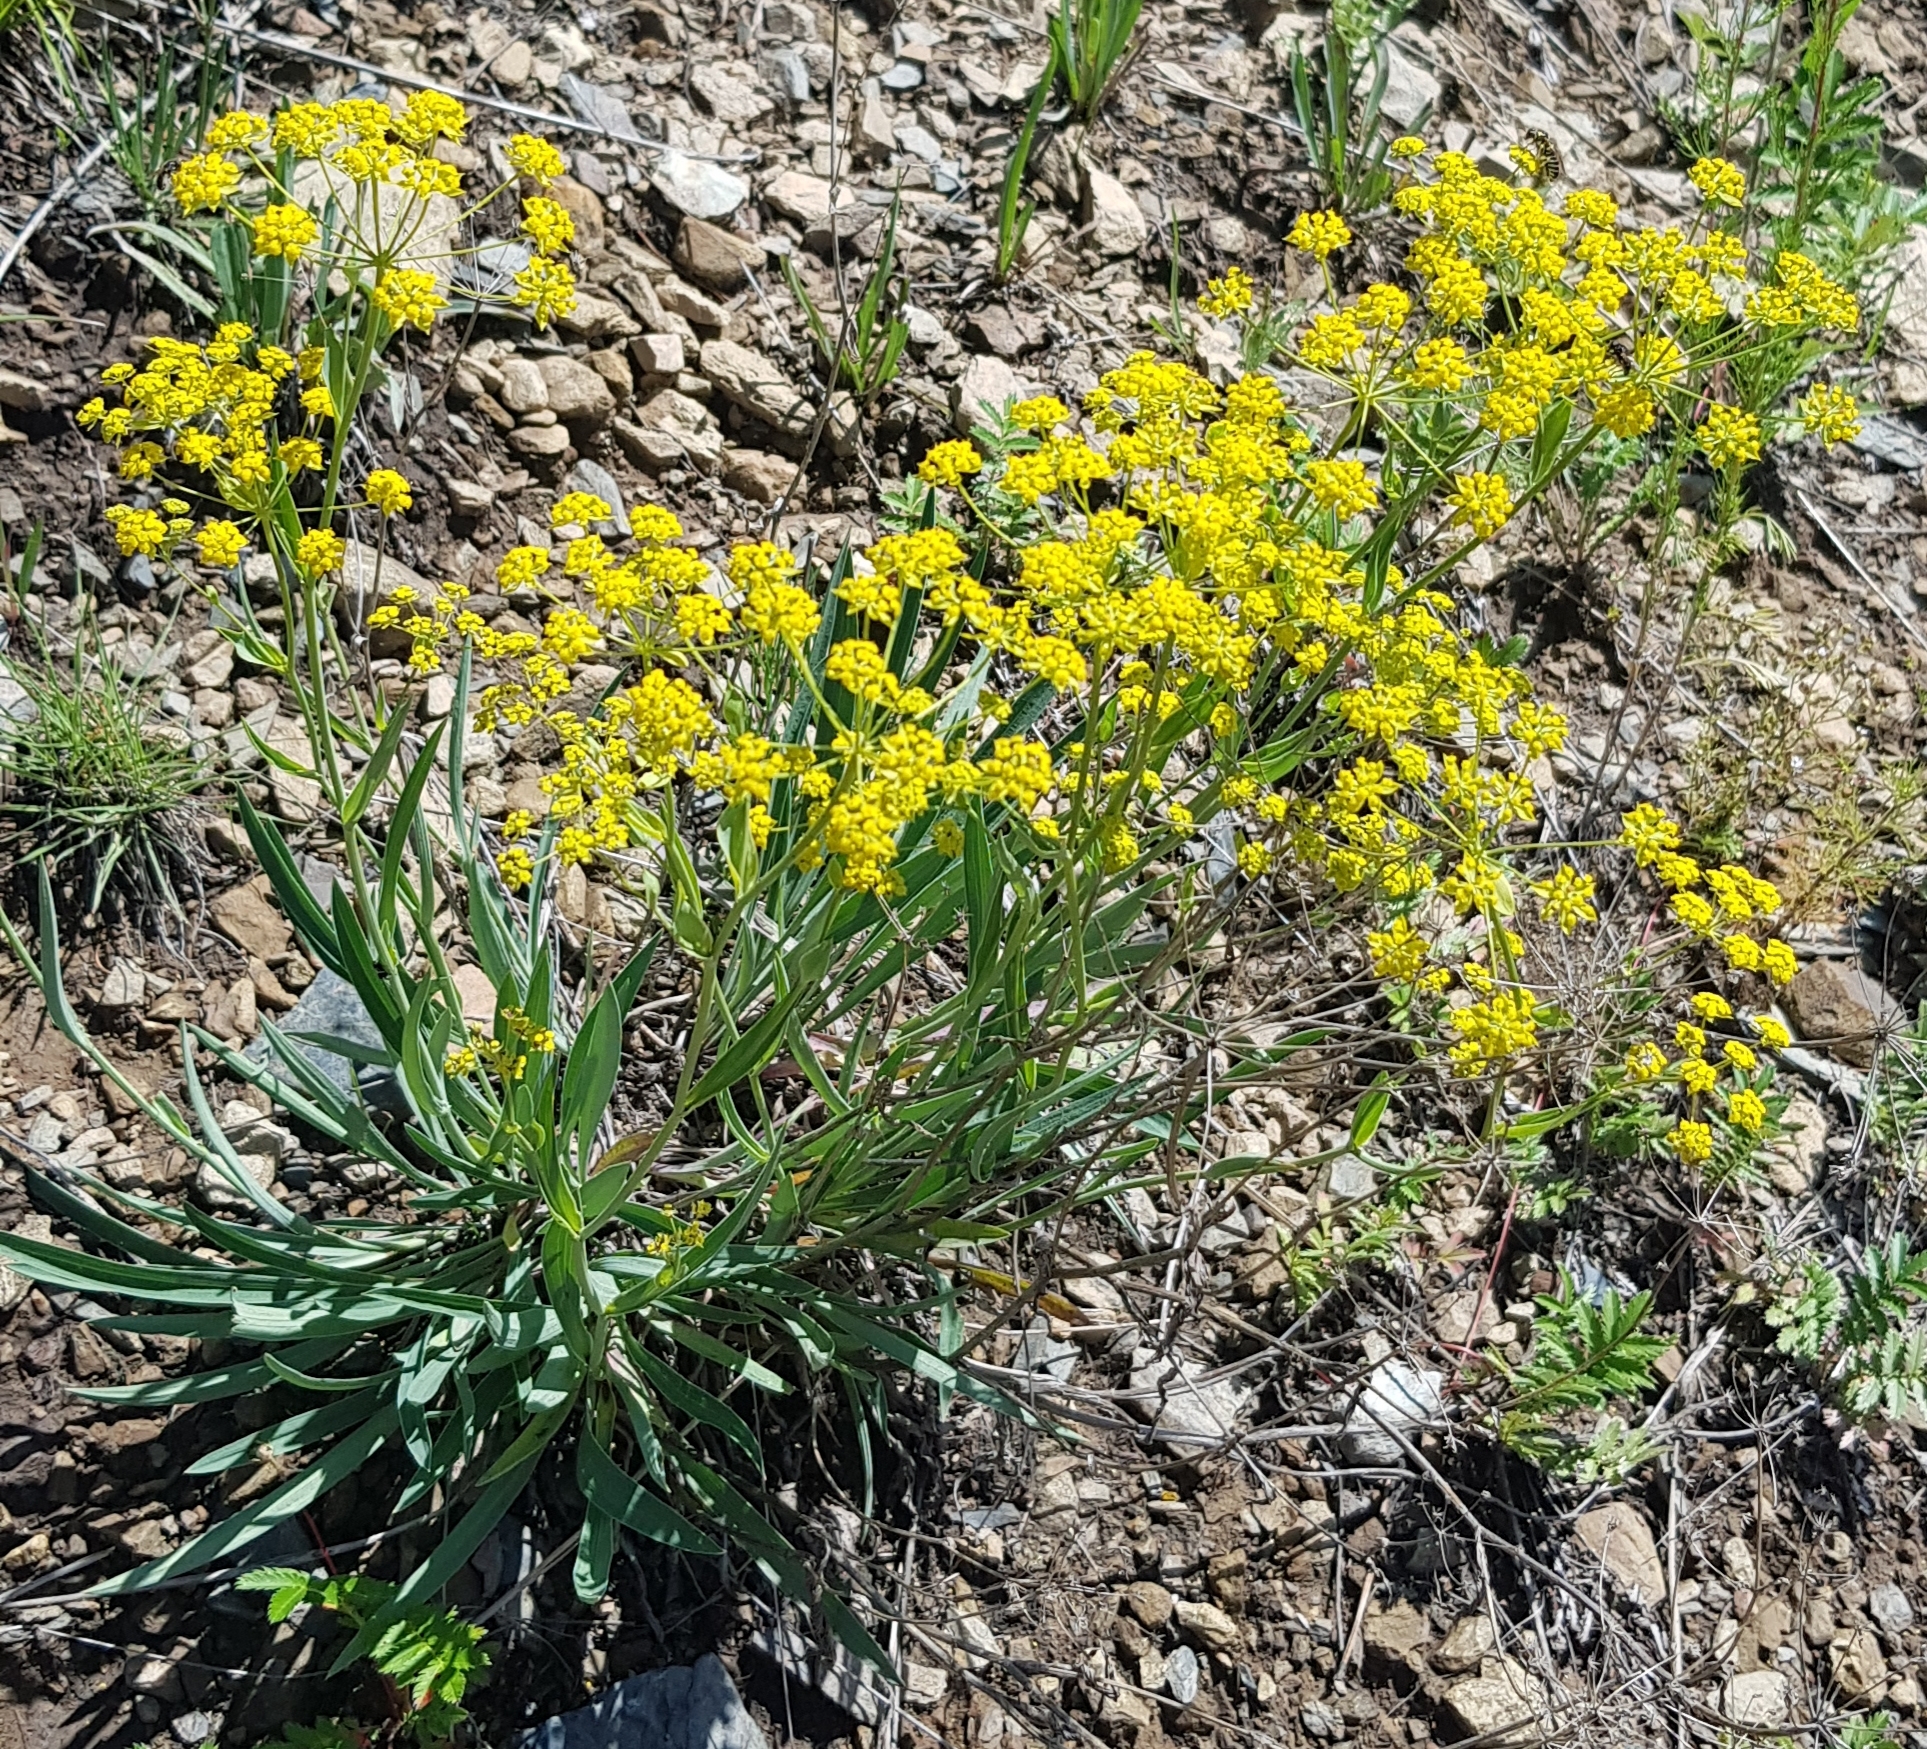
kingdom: Plantae
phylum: Tracheophyta
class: Magnoliopsida
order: Apiales
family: Apiaceae
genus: Bupleurum
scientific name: Bupleurum sibiricum
